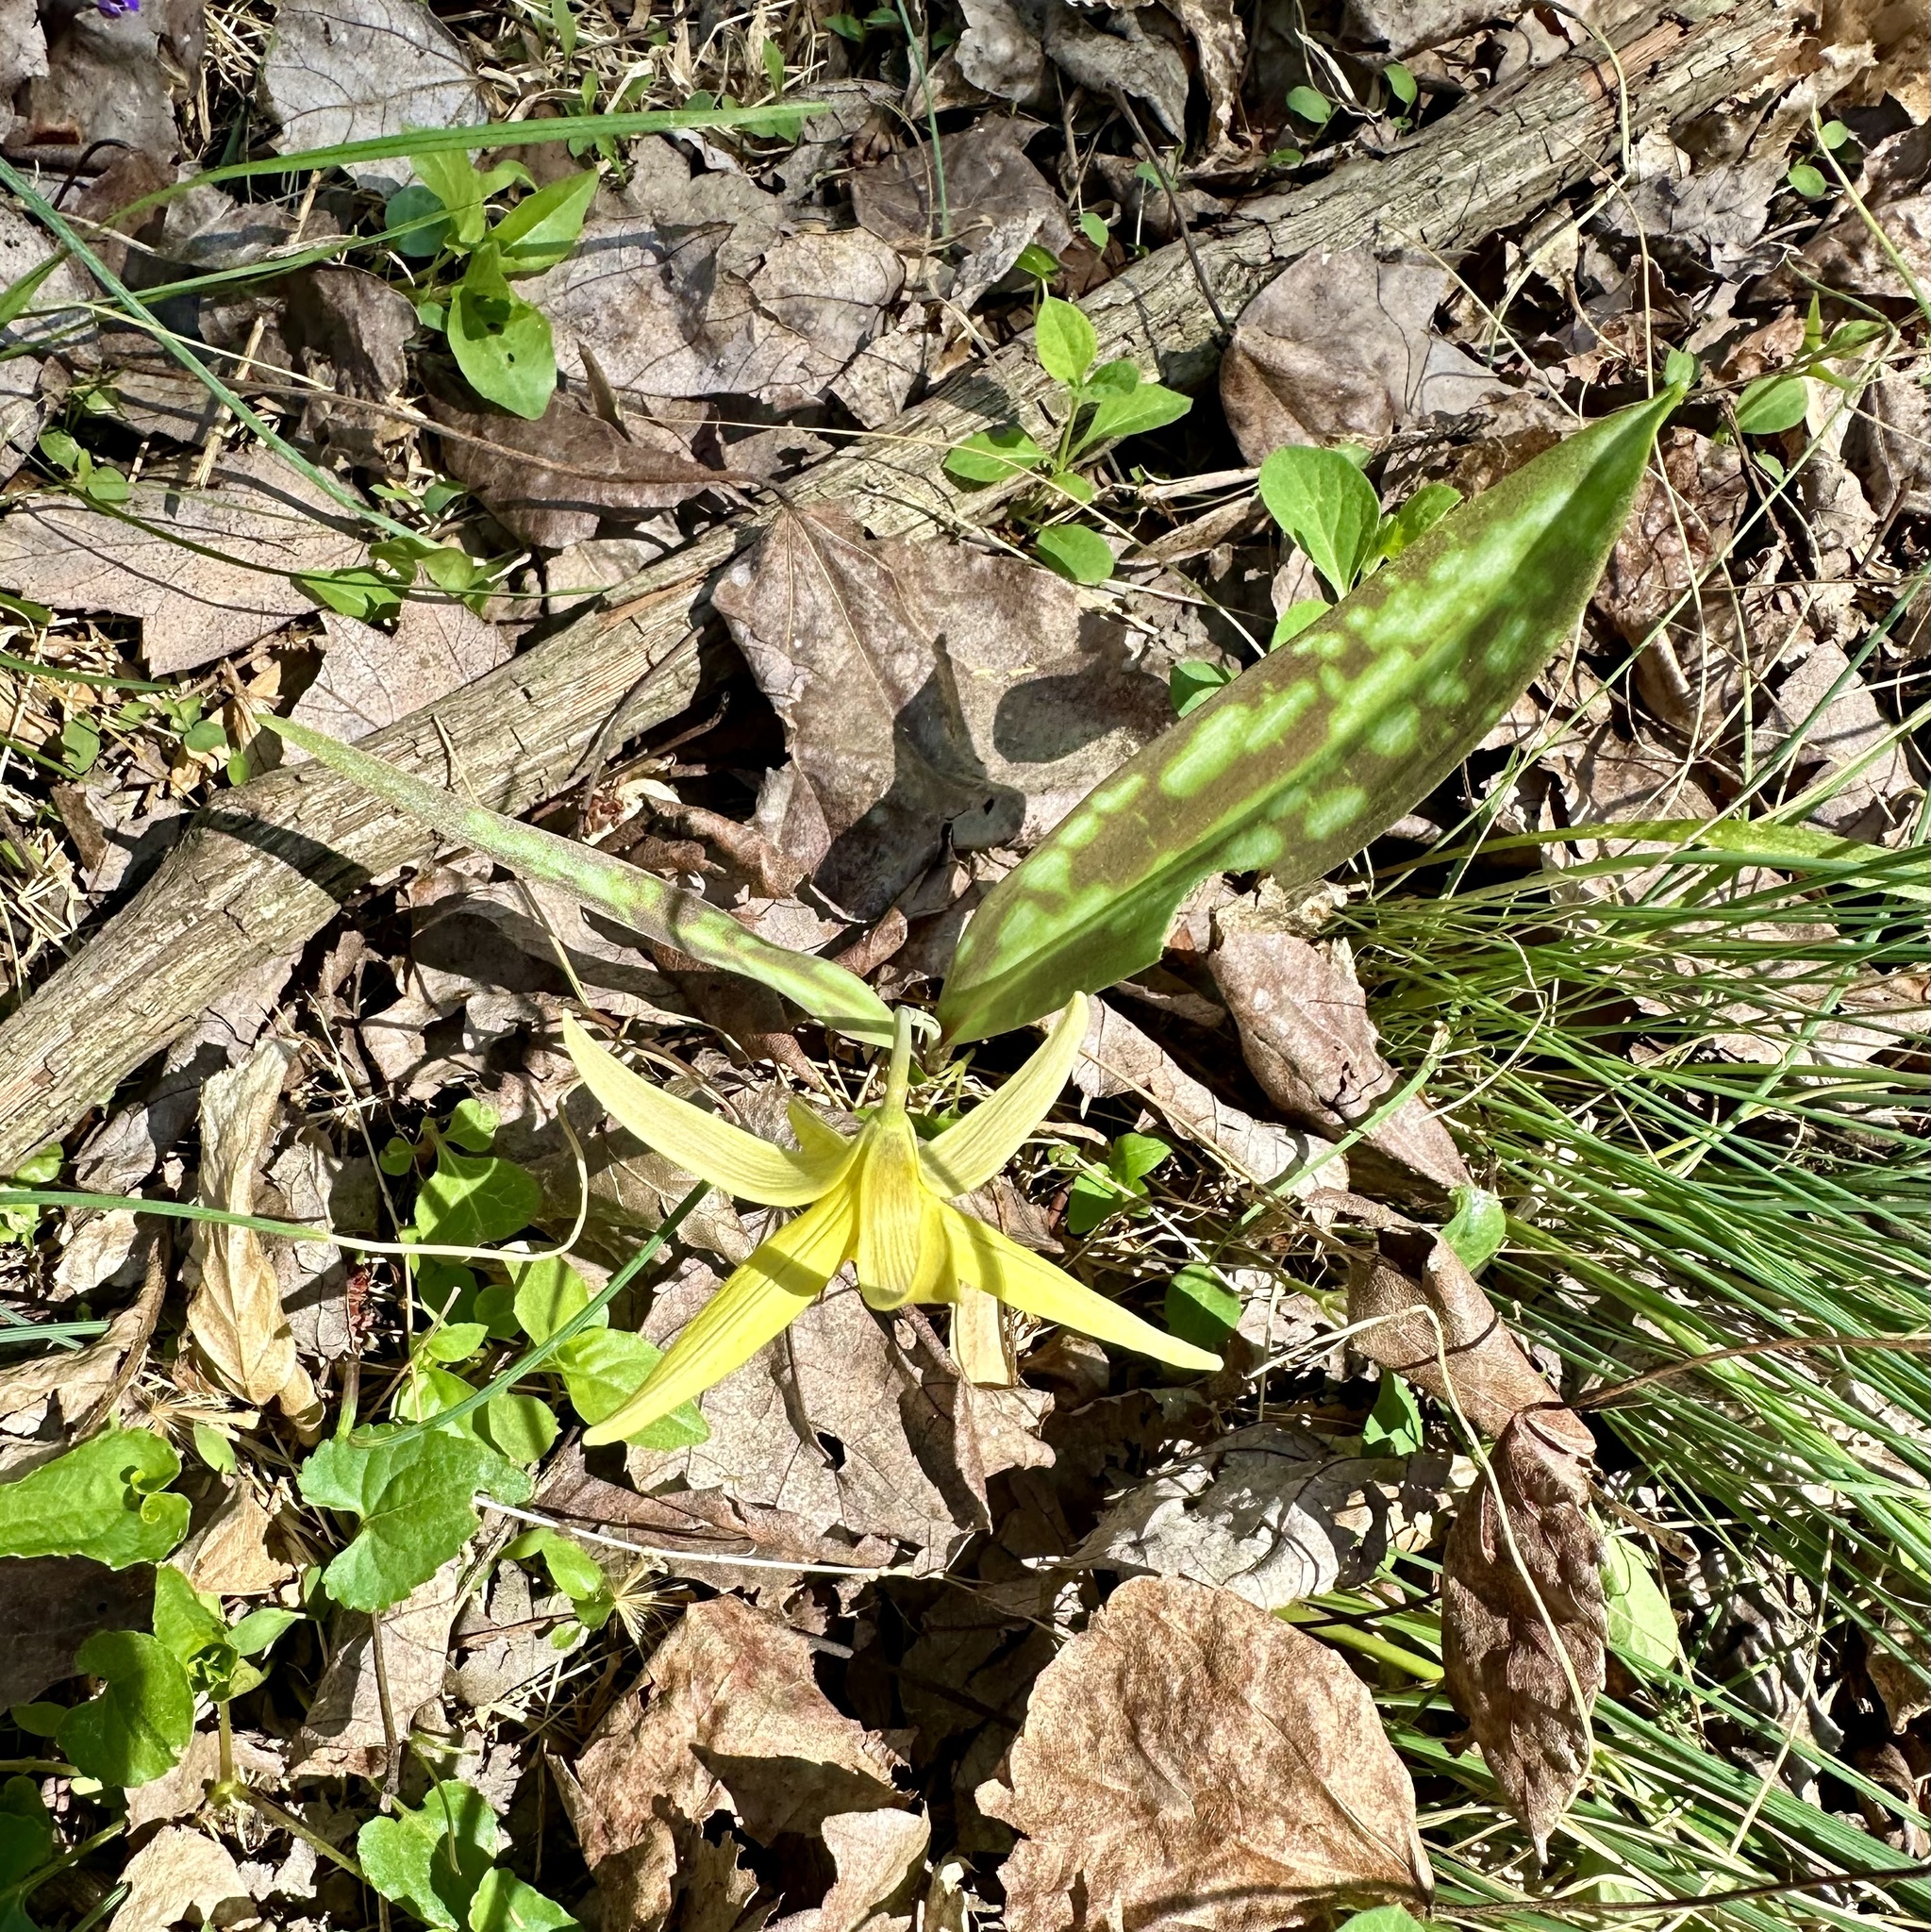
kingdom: Plantae
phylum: Tracheophyta
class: Liliopsida
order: Liliales
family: Liliaceae
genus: Erythronium
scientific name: Erythronium americanum
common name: Yellow adder's-tongue
